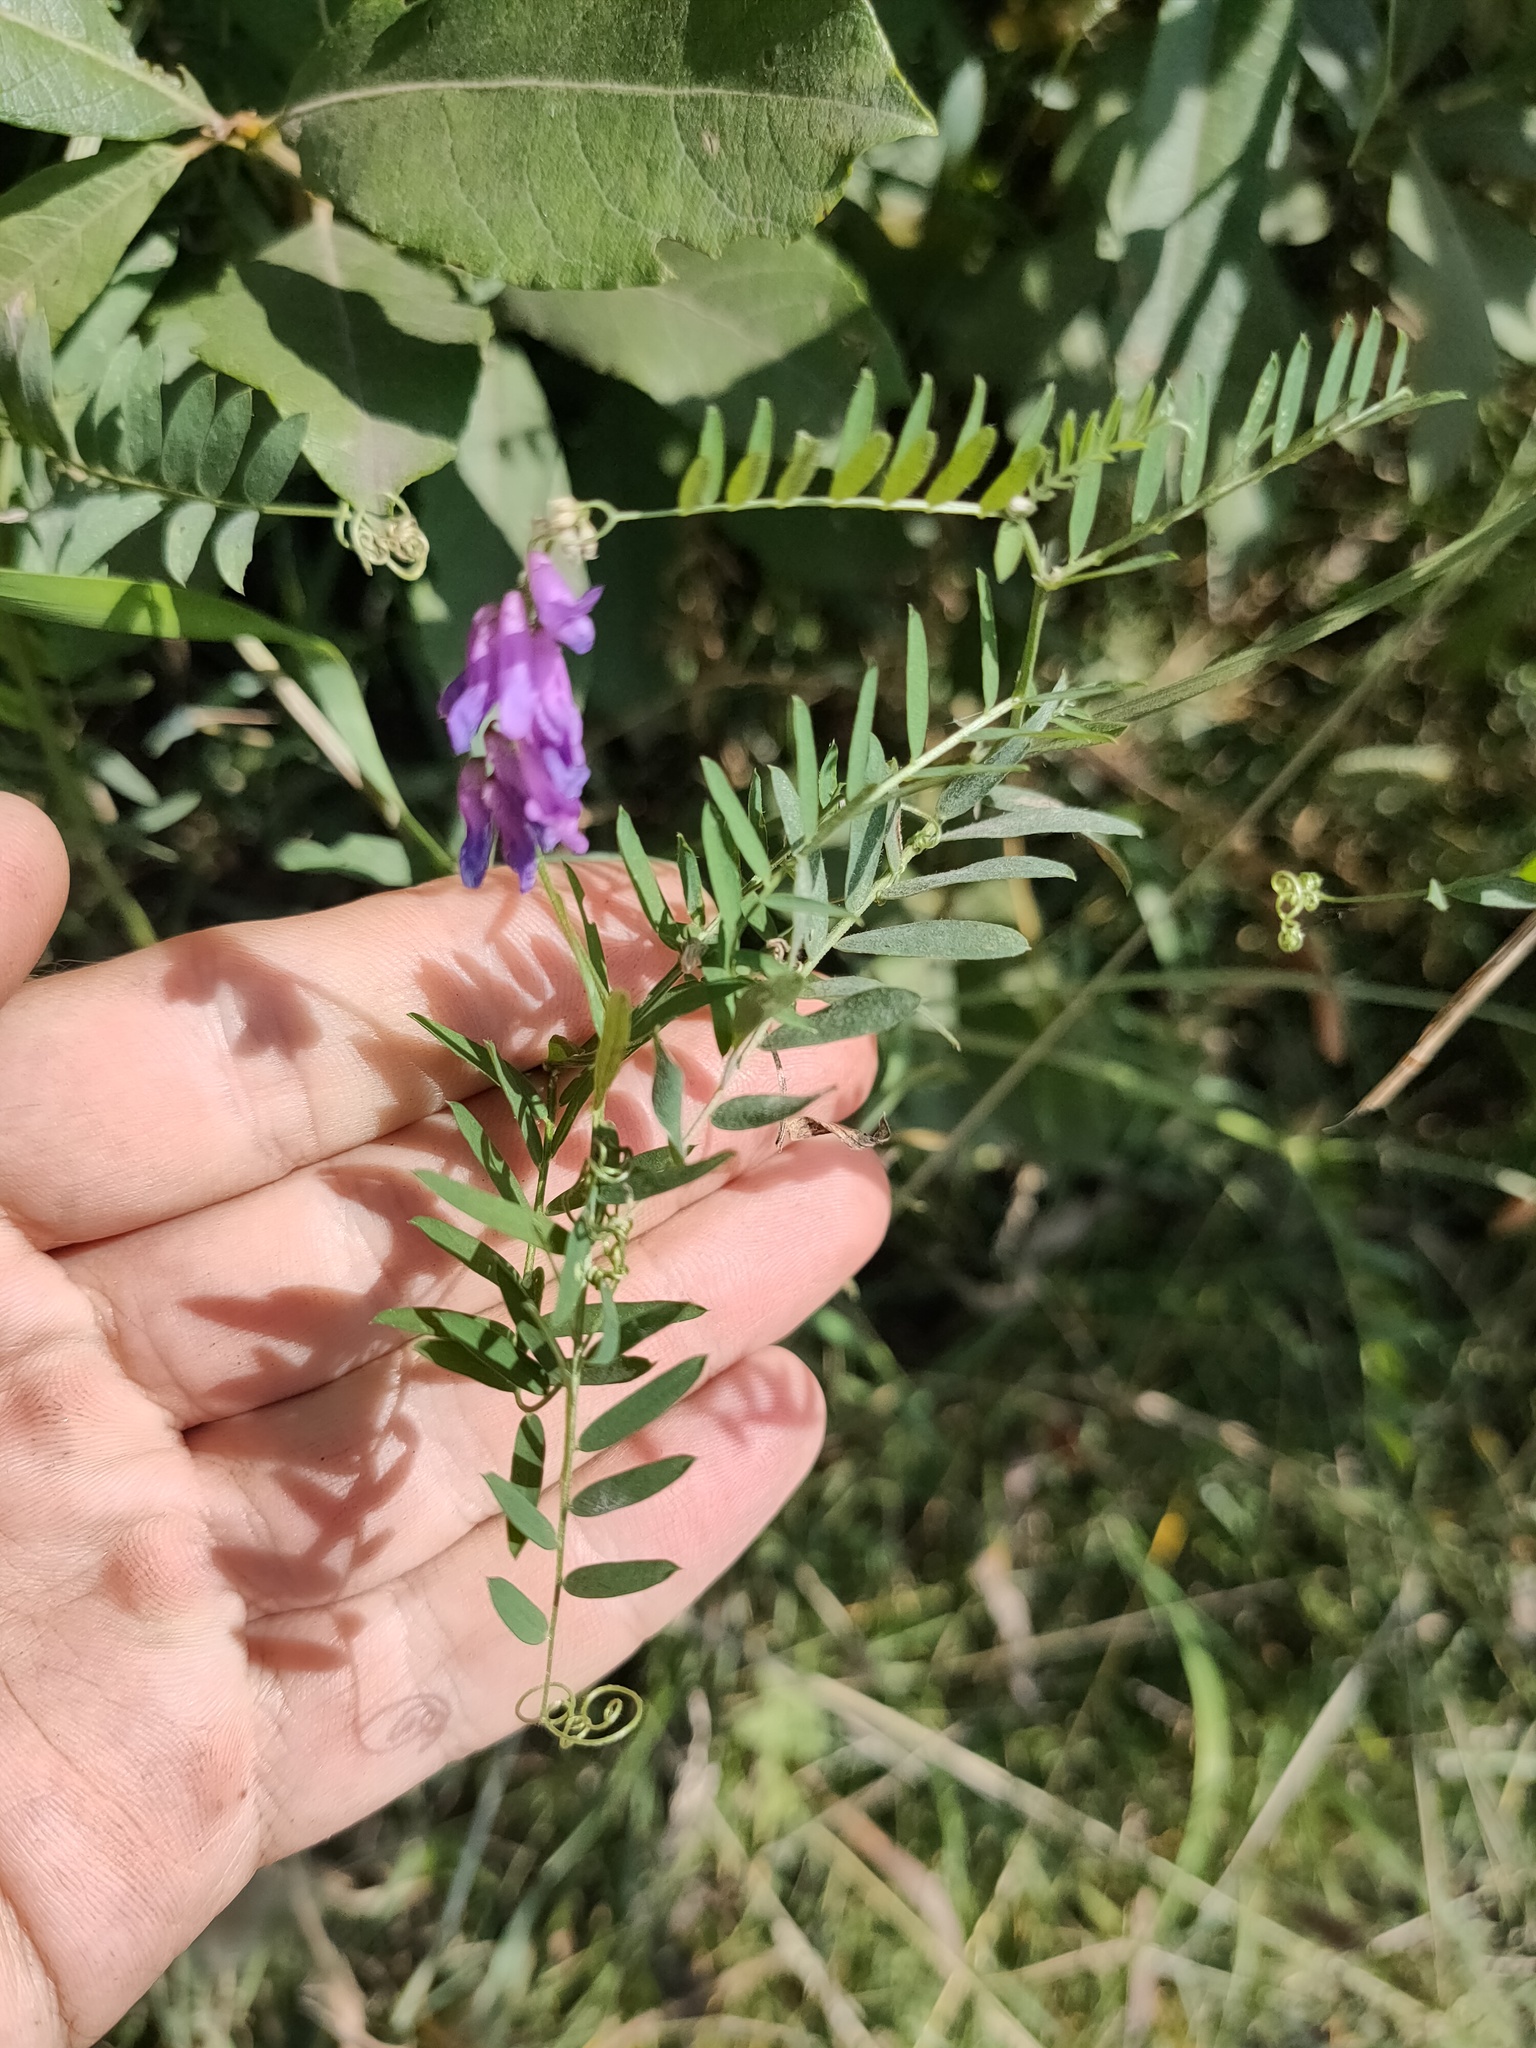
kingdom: Plantae
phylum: Tracheophyta
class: Magnoliopsida
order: Fabales
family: Fabaceae
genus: Vicia
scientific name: Vicia cracca
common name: Bird vetch
